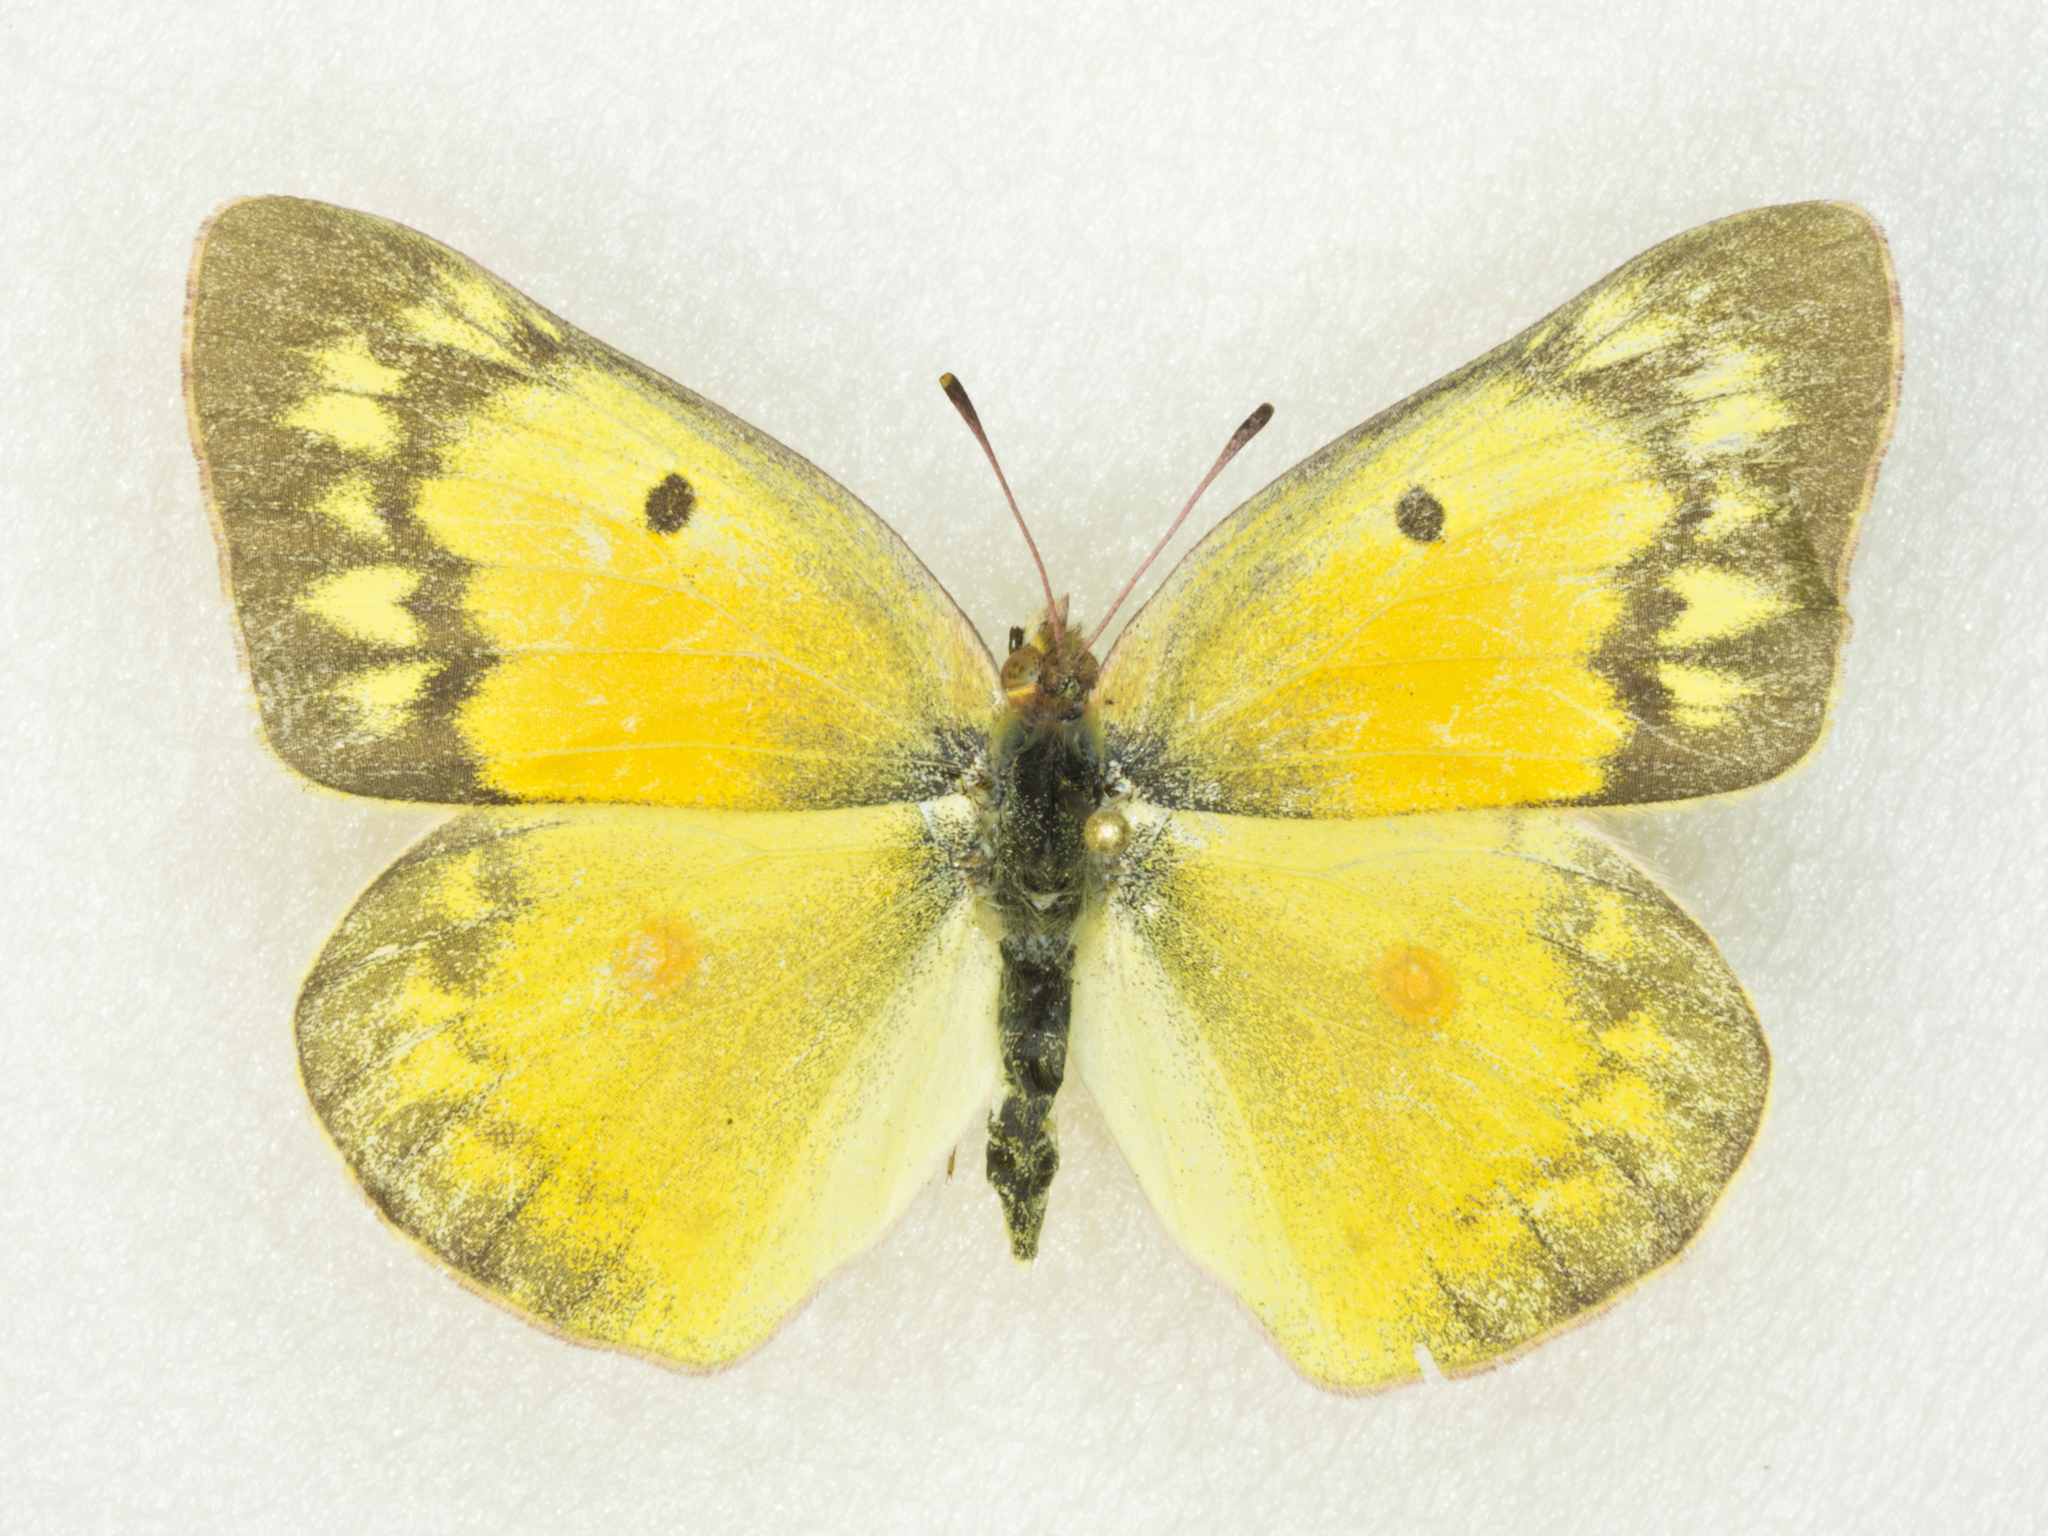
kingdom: Animalia
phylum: Arthropoda
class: Insecta
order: Lepidoptera
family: Pieridae
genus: Colias
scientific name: Colias eurytheme
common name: Alfalfa butterfly
